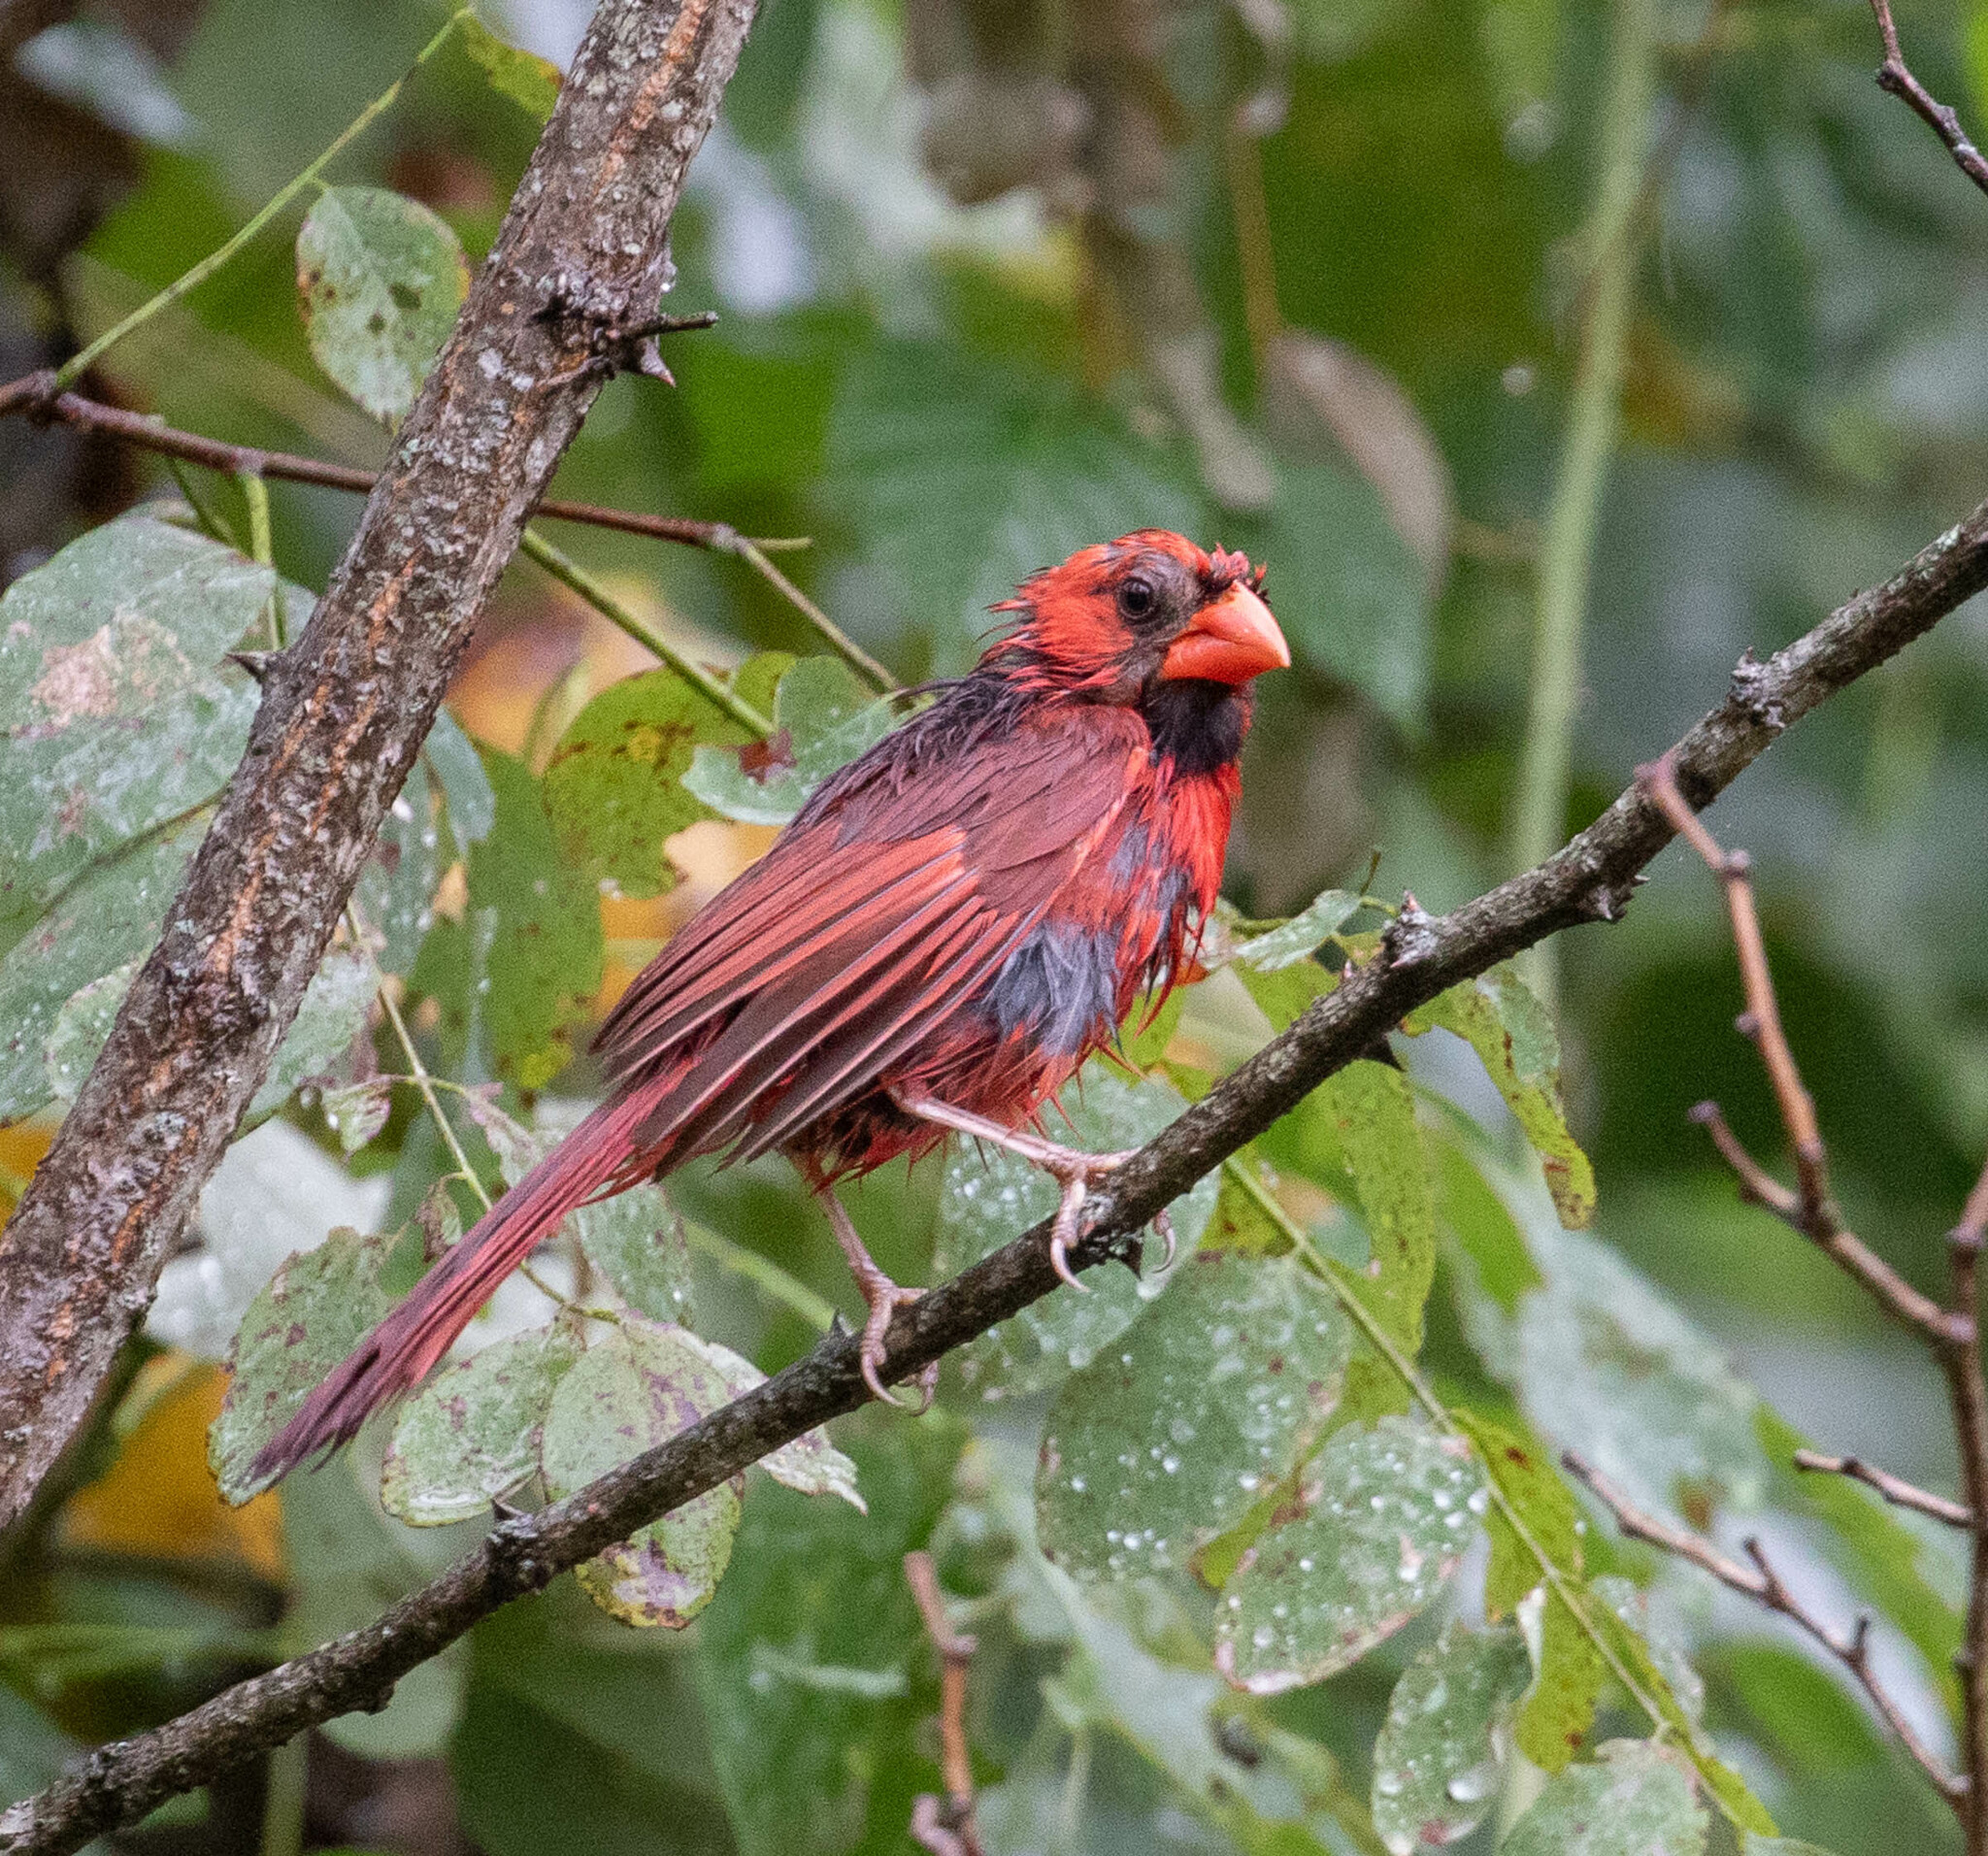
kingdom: Animalia
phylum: Chordata
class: Aves
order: Passeriformes
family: Cardinalidae
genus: Cardinalis
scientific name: Cardinalis cardinalis
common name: Northern cardinal
